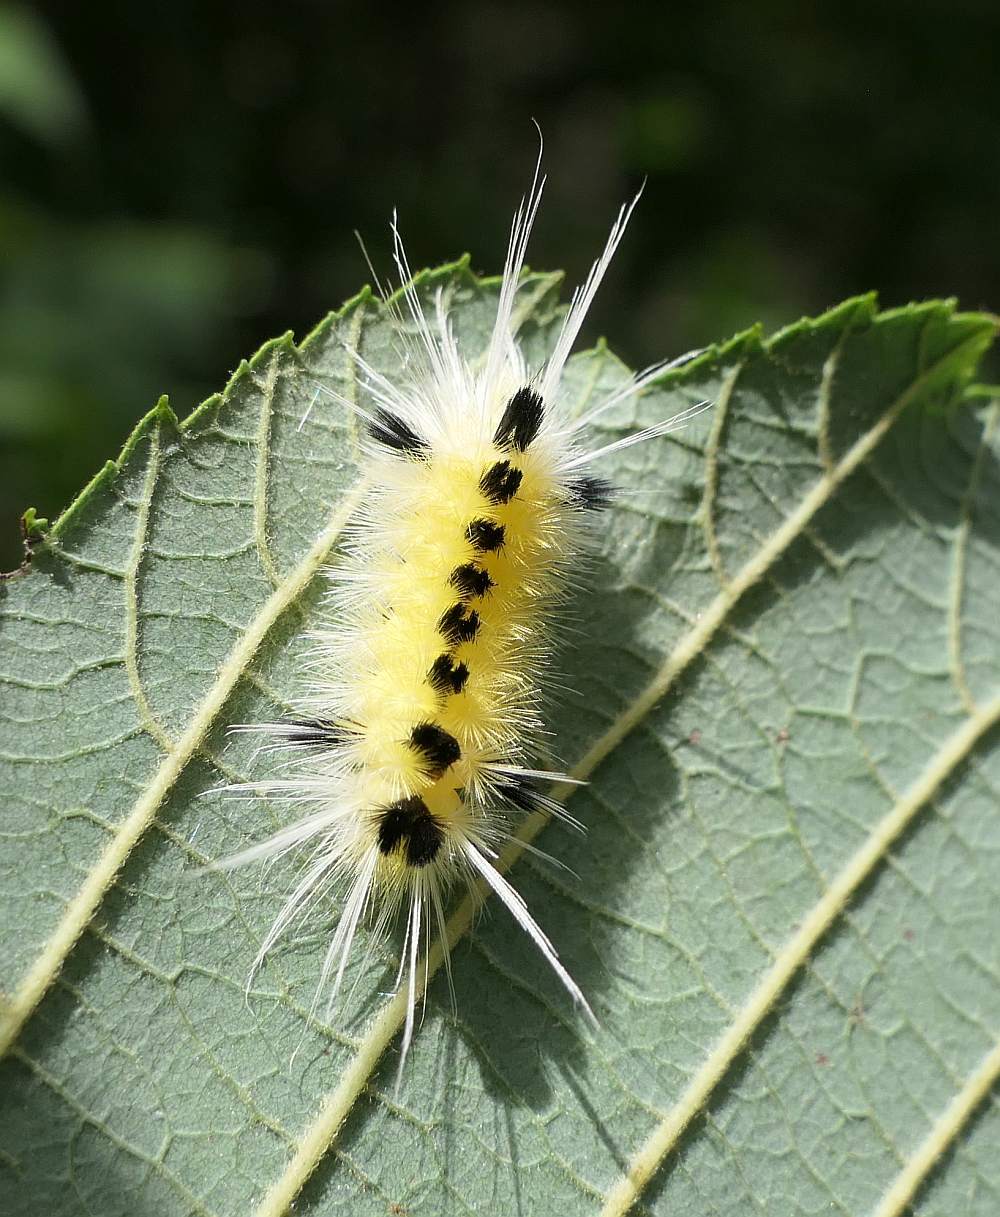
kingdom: Animalia
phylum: Arthropoda
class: Insecta
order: Lepidoptera
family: Erebidae
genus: Lophocampa
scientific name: Lophocampa maculata
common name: Spotted tussock moth
